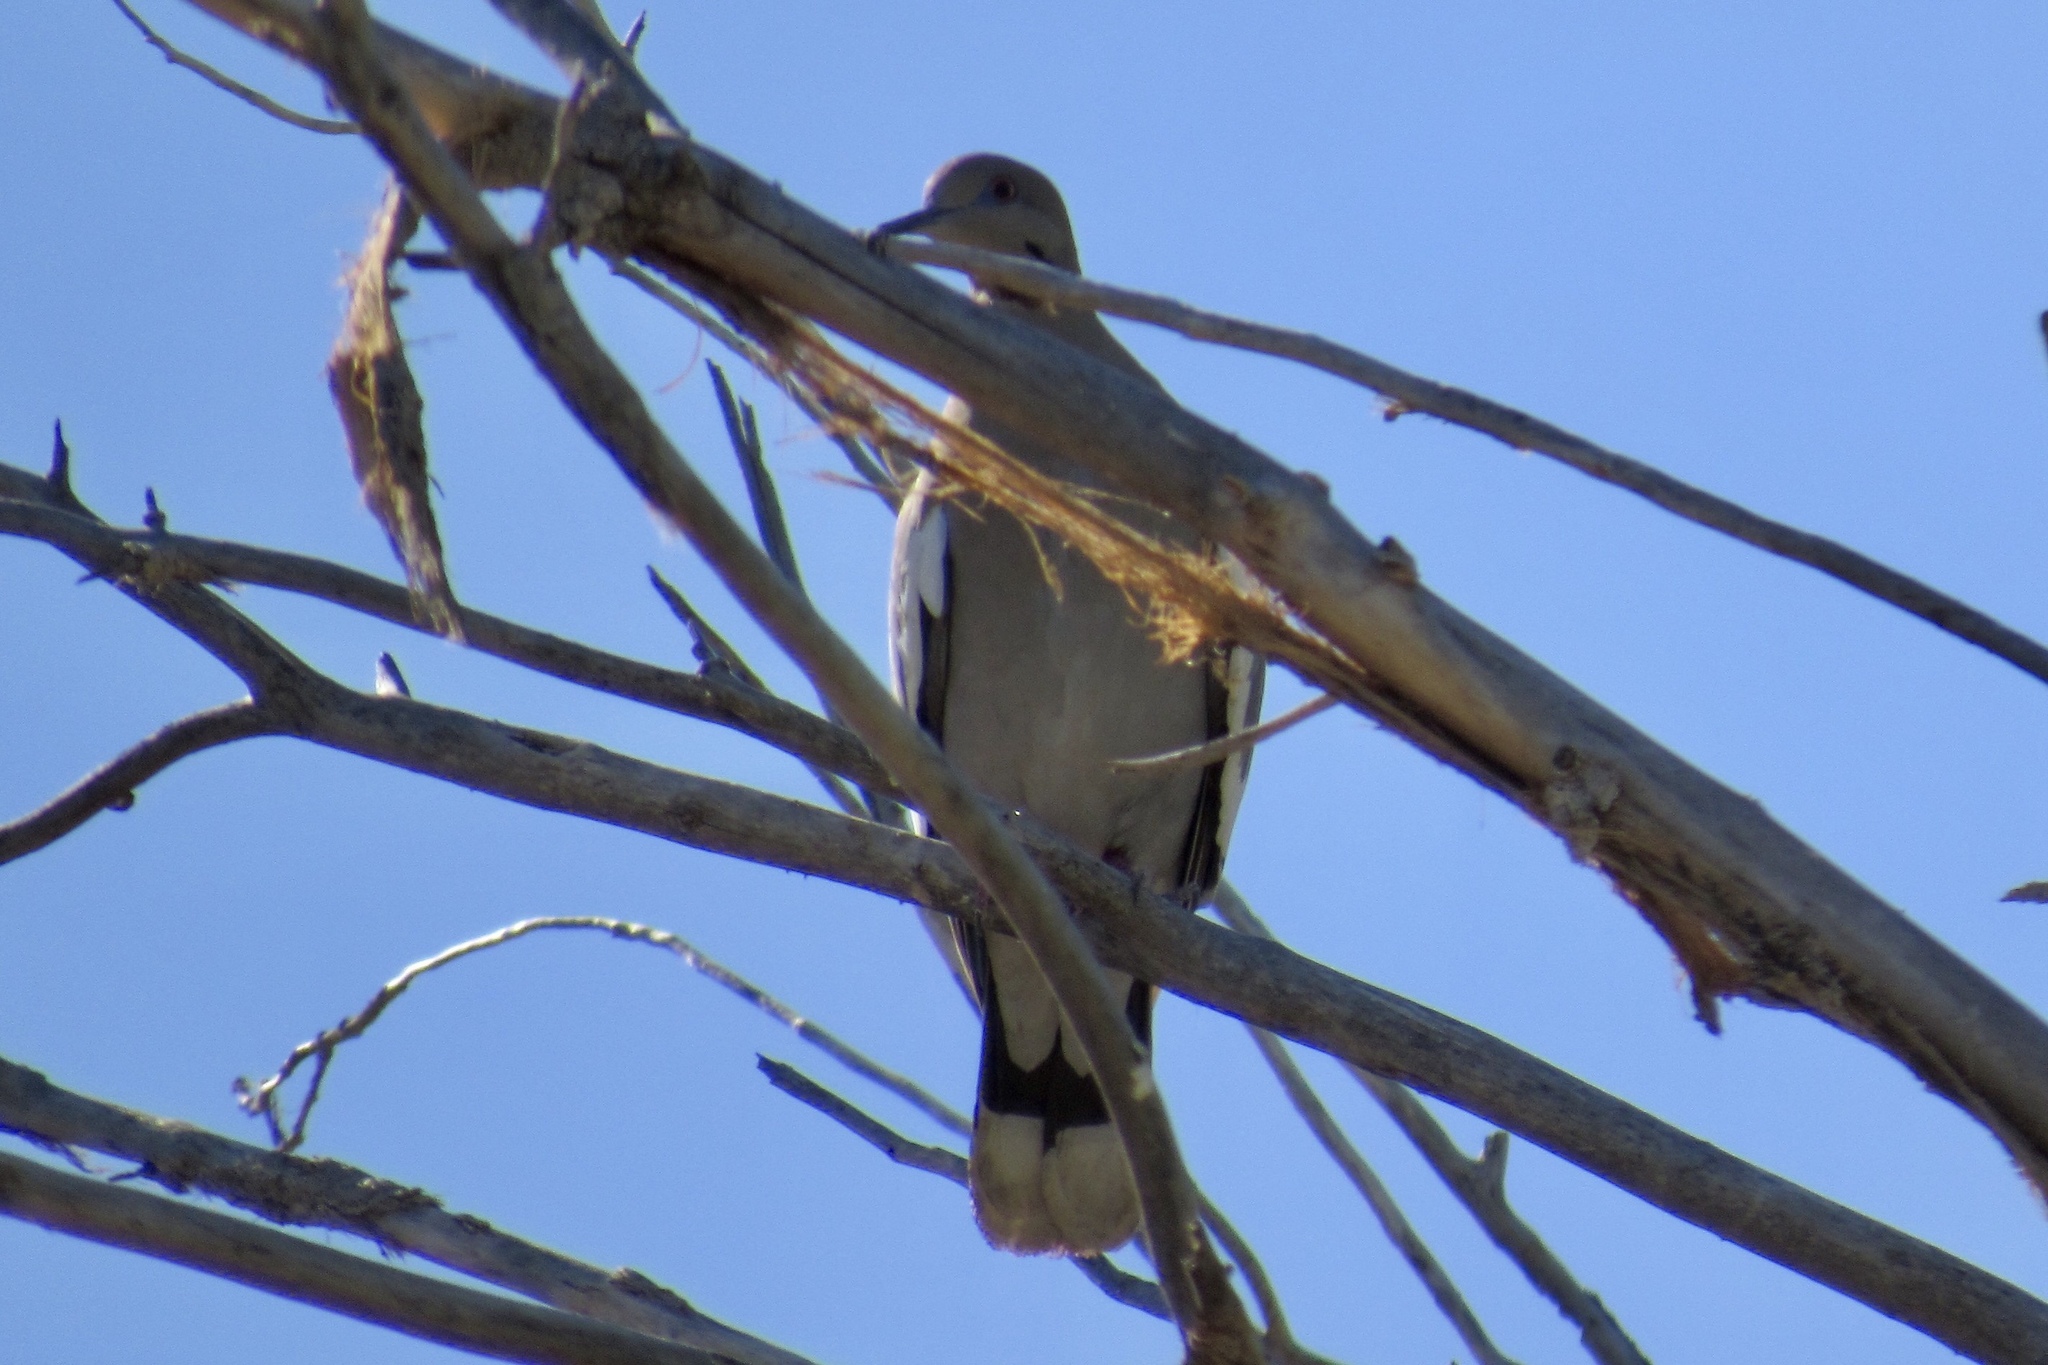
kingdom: Animalia
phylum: Chordata
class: Aves
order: Columbiformes
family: Columbidae
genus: Zenaida
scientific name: Zenaida asiatica
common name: White-winged dove
